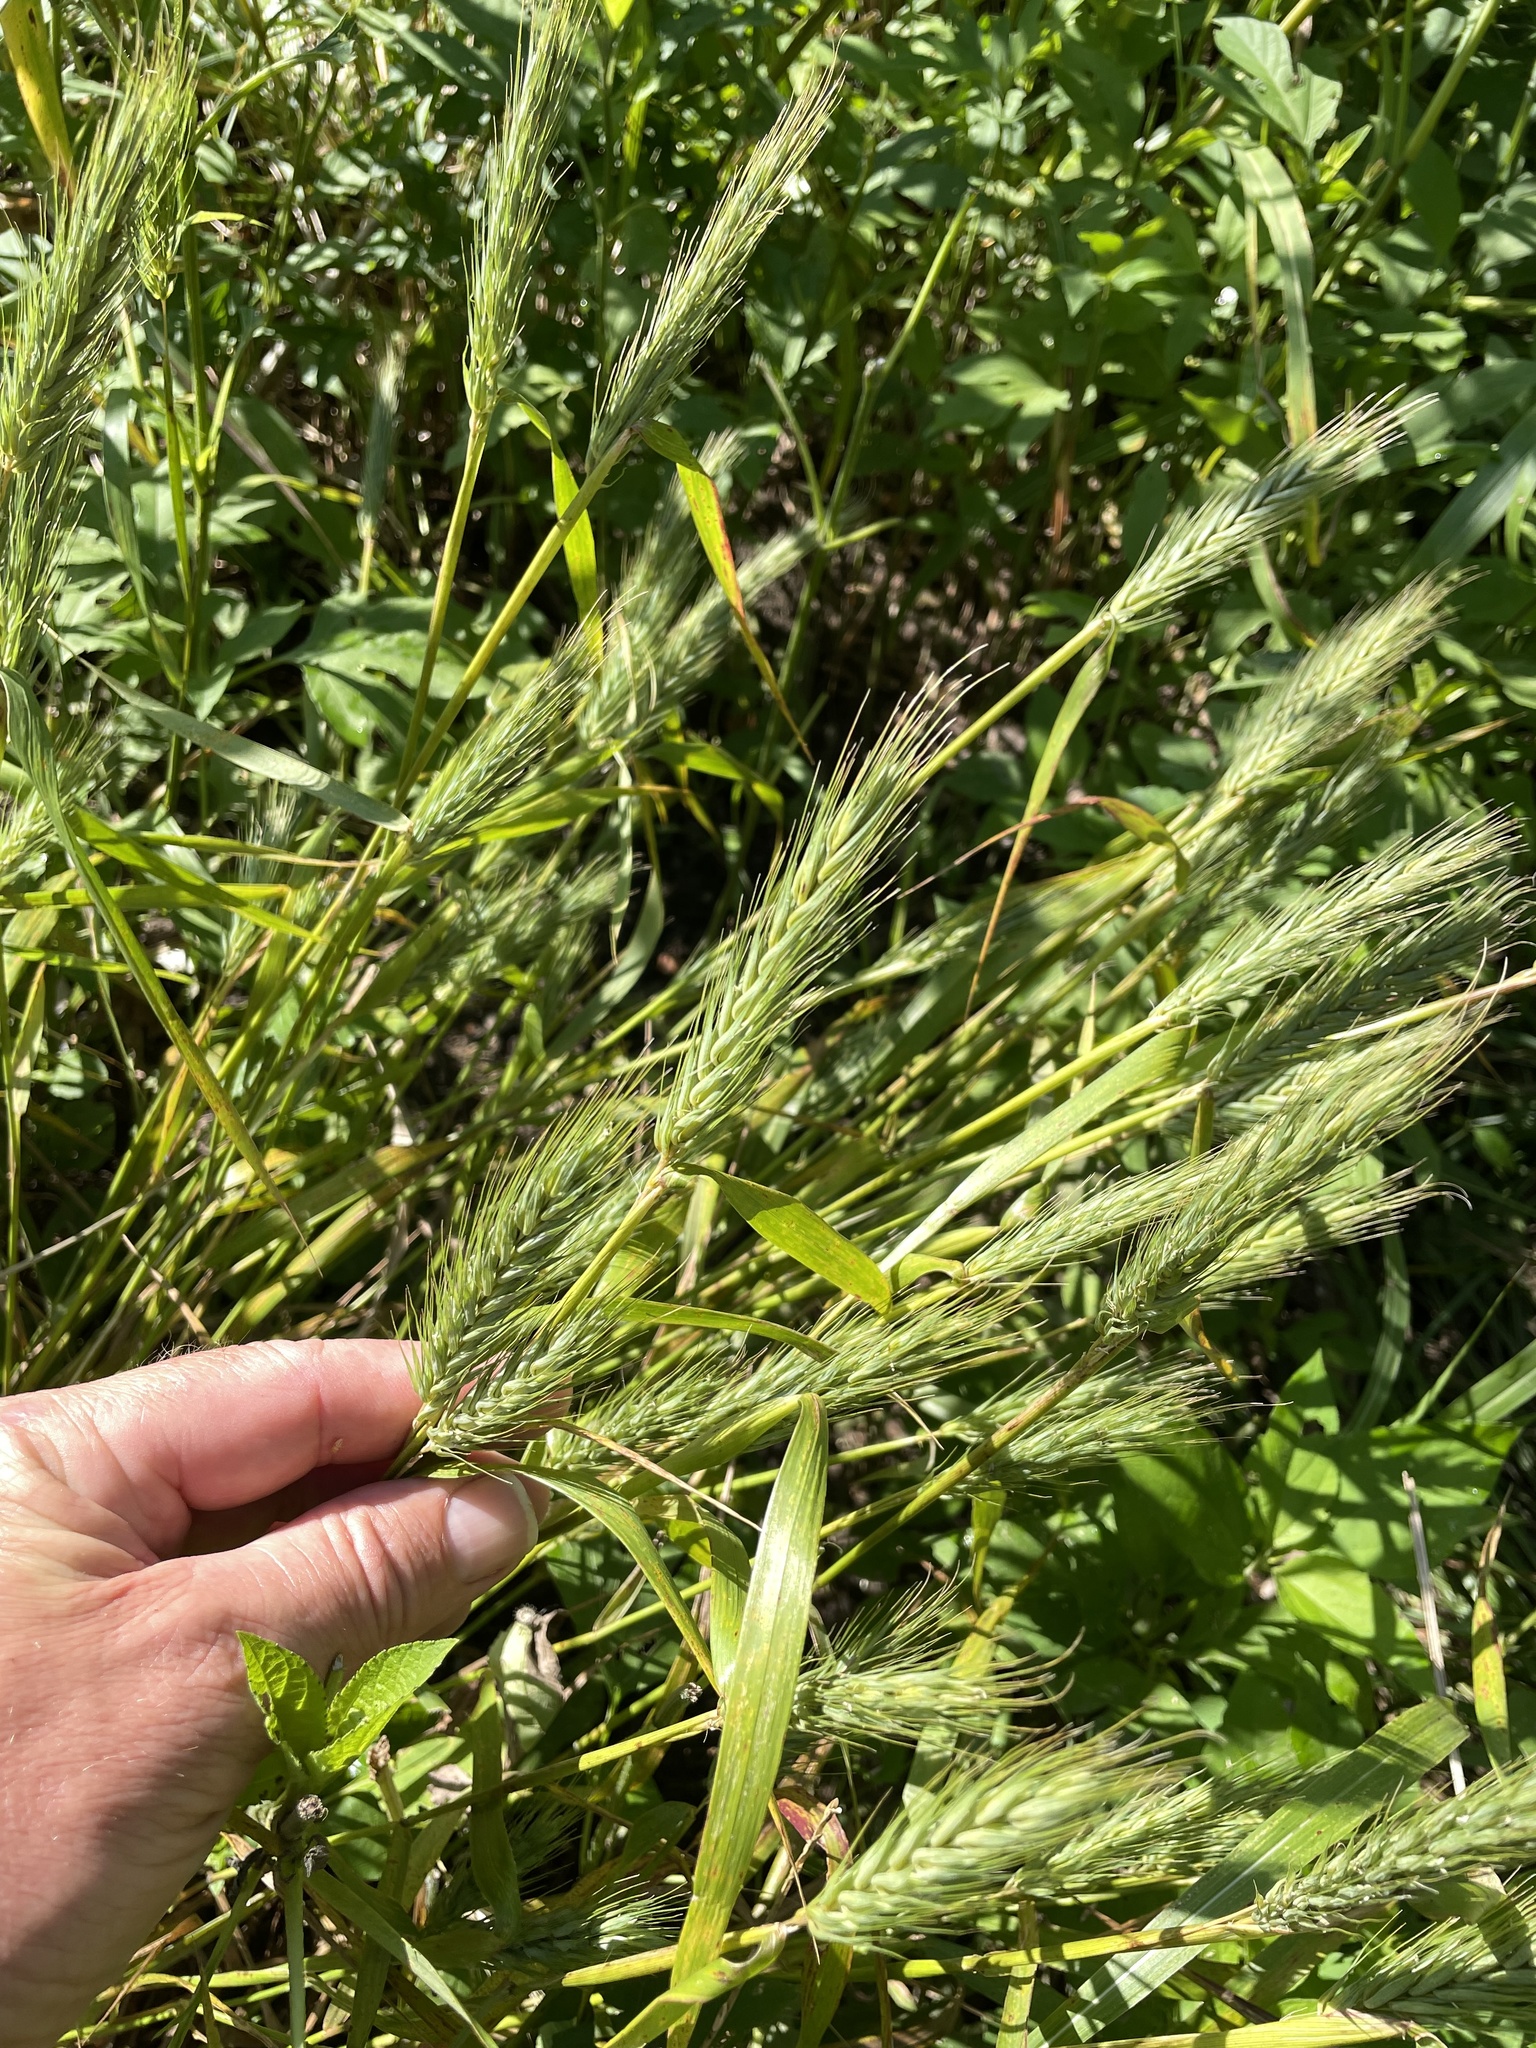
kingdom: Plantae
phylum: Tracheophyta
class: Liliopsida
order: Poales
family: Poaceae
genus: Elymus
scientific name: Elymus virginicus
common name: Common eastern wildrye
